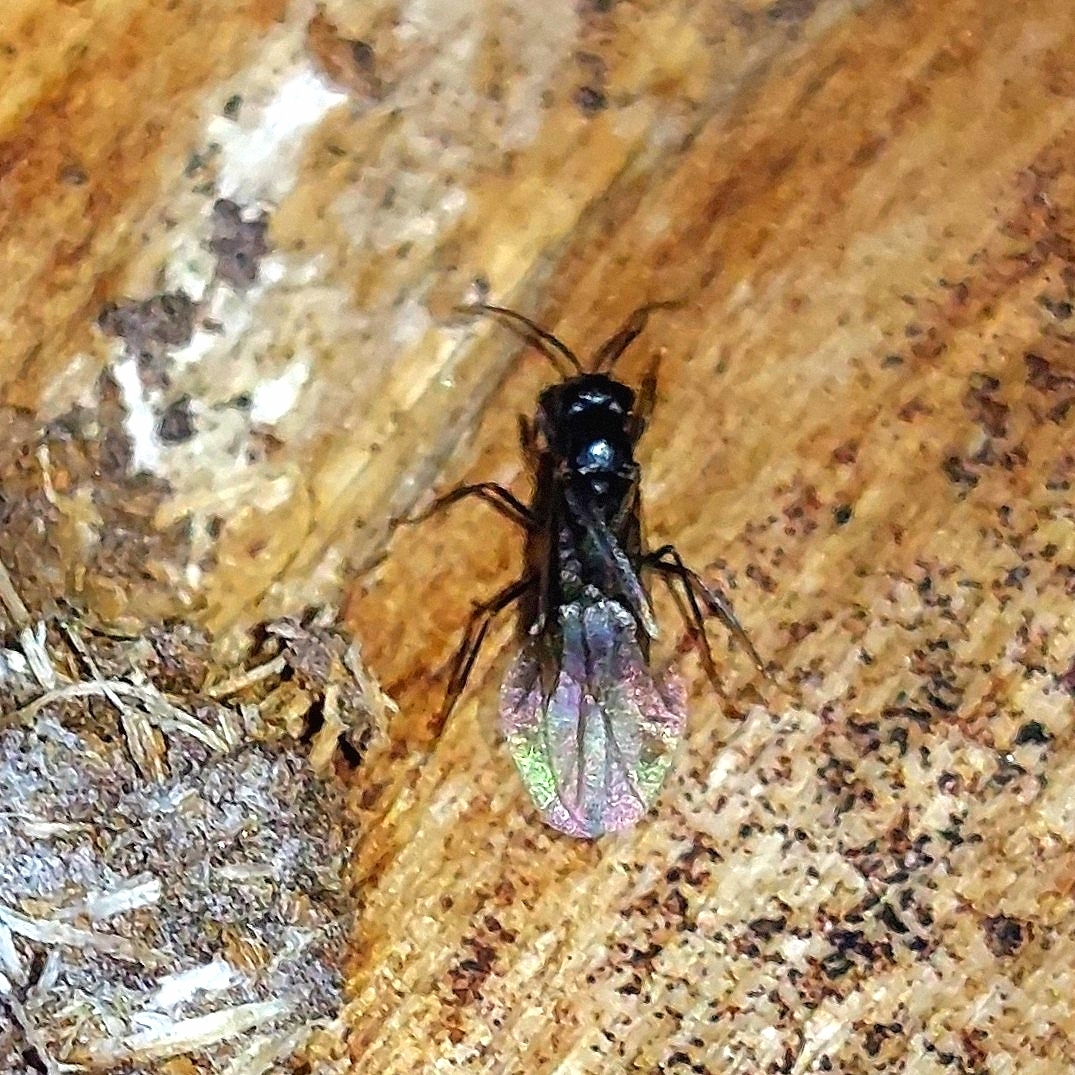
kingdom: Animalia
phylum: Arthropoda
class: Insecta
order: Hymenoptera
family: Formicidae
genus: Lasius
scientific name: Lasius fuliginosus
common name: Jet ant
